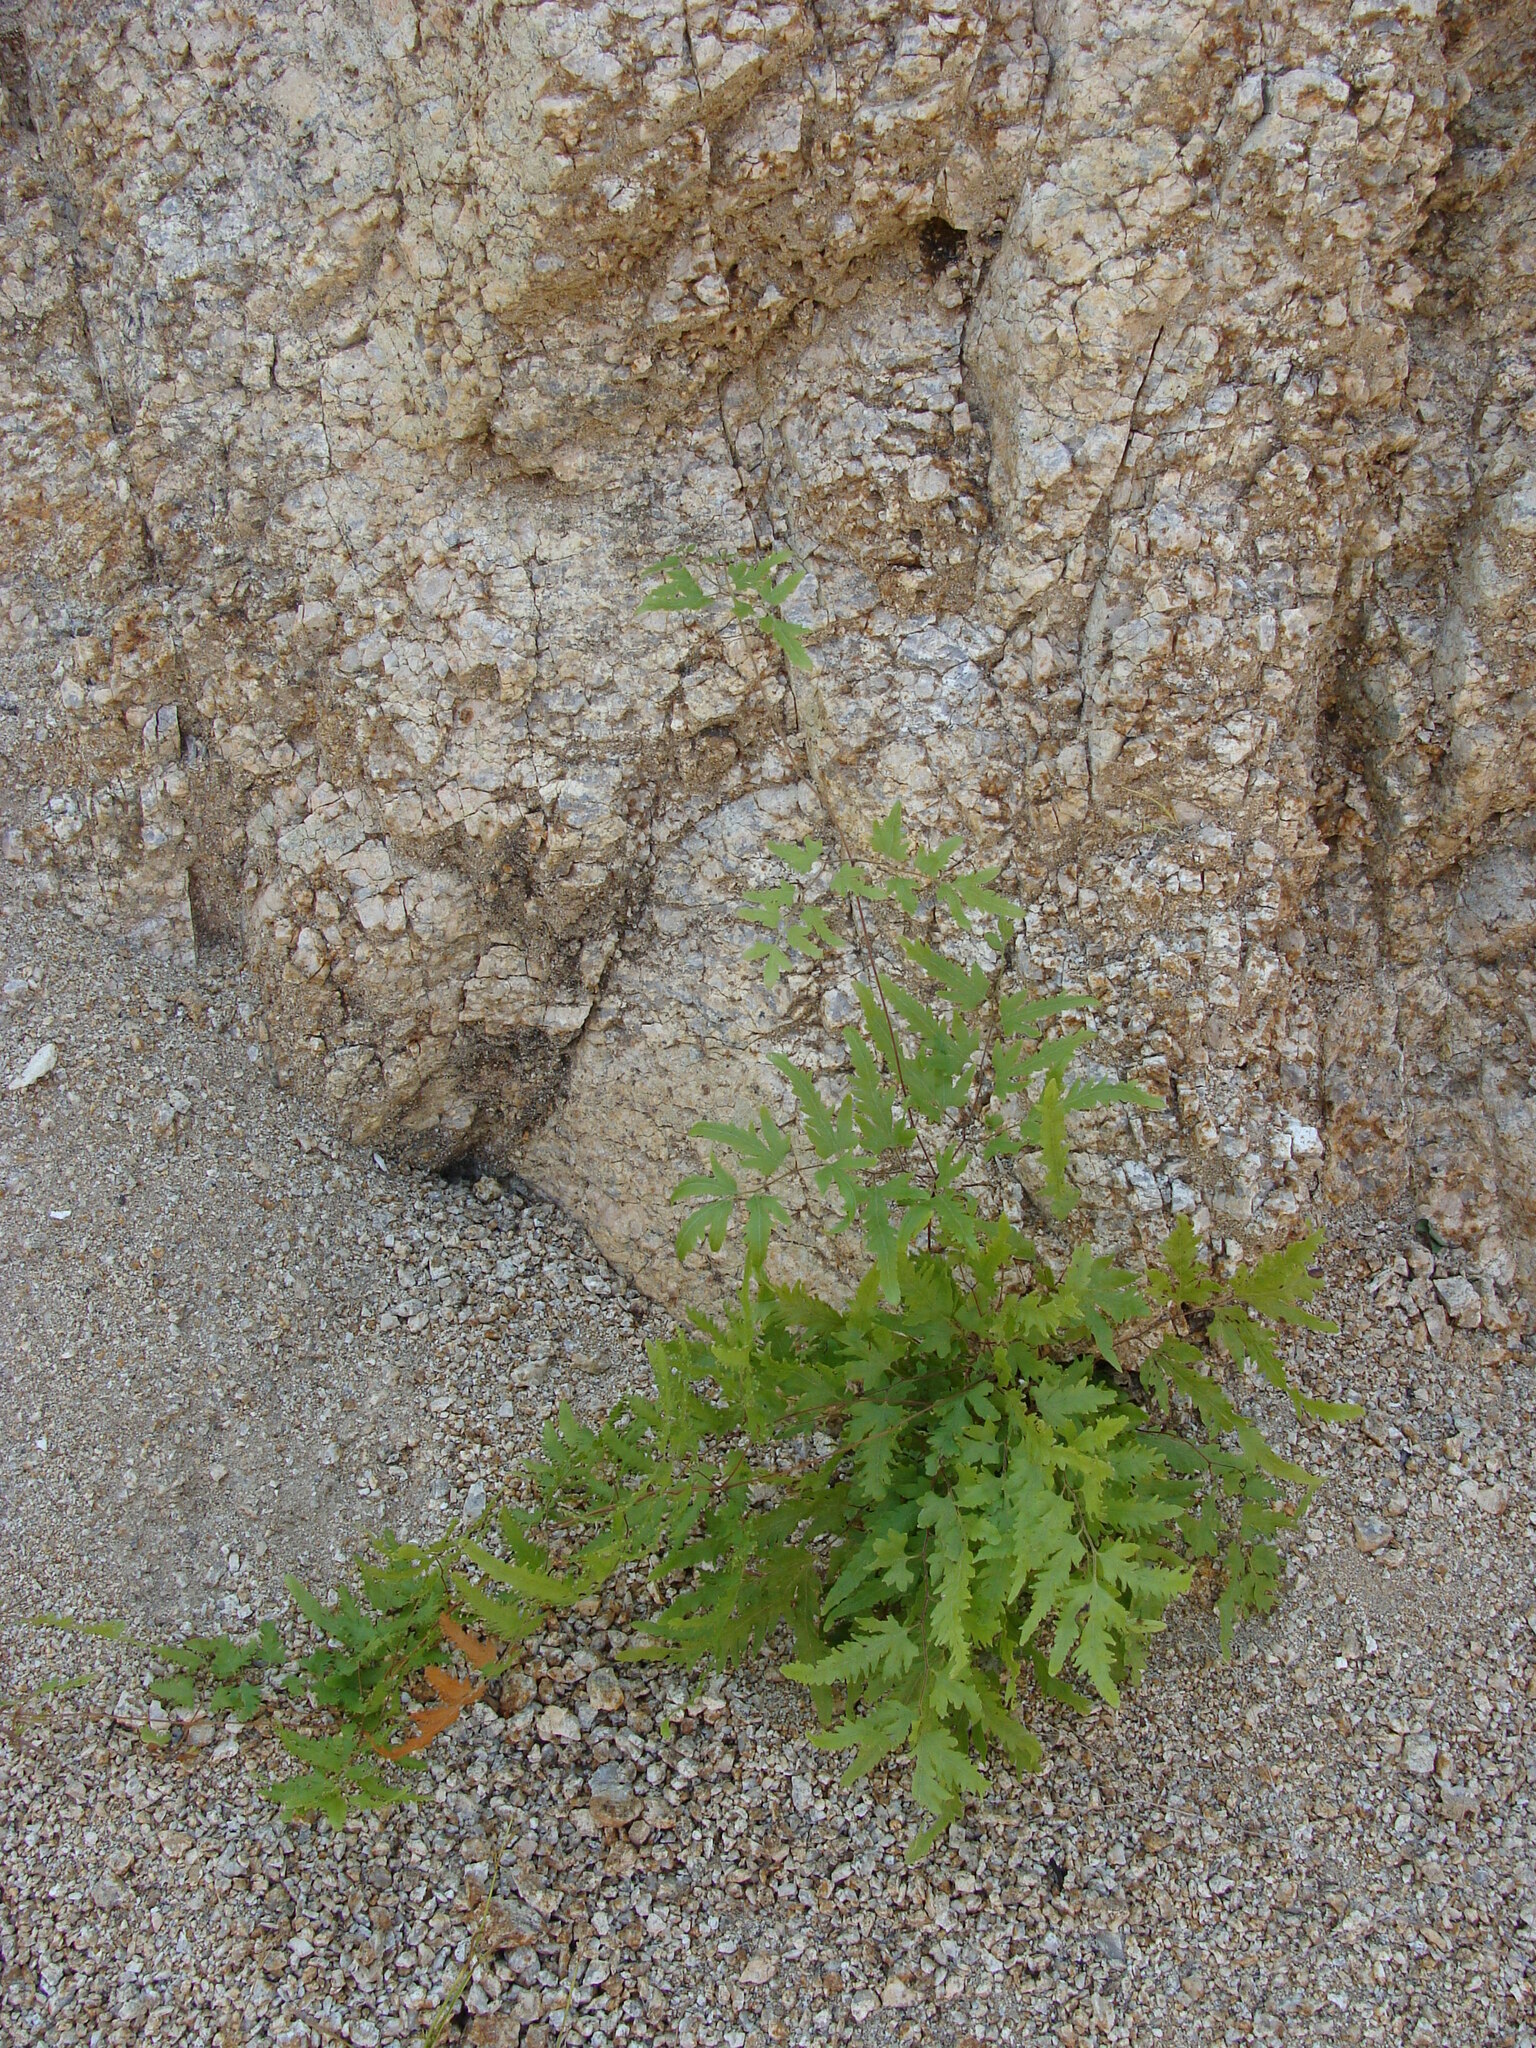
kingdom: Plantae
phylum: Tracheophyta
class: Polypodiopsida
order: Schizaeales
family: Lygodiaceae
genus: Lygodium
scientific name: Lygodium venustum
